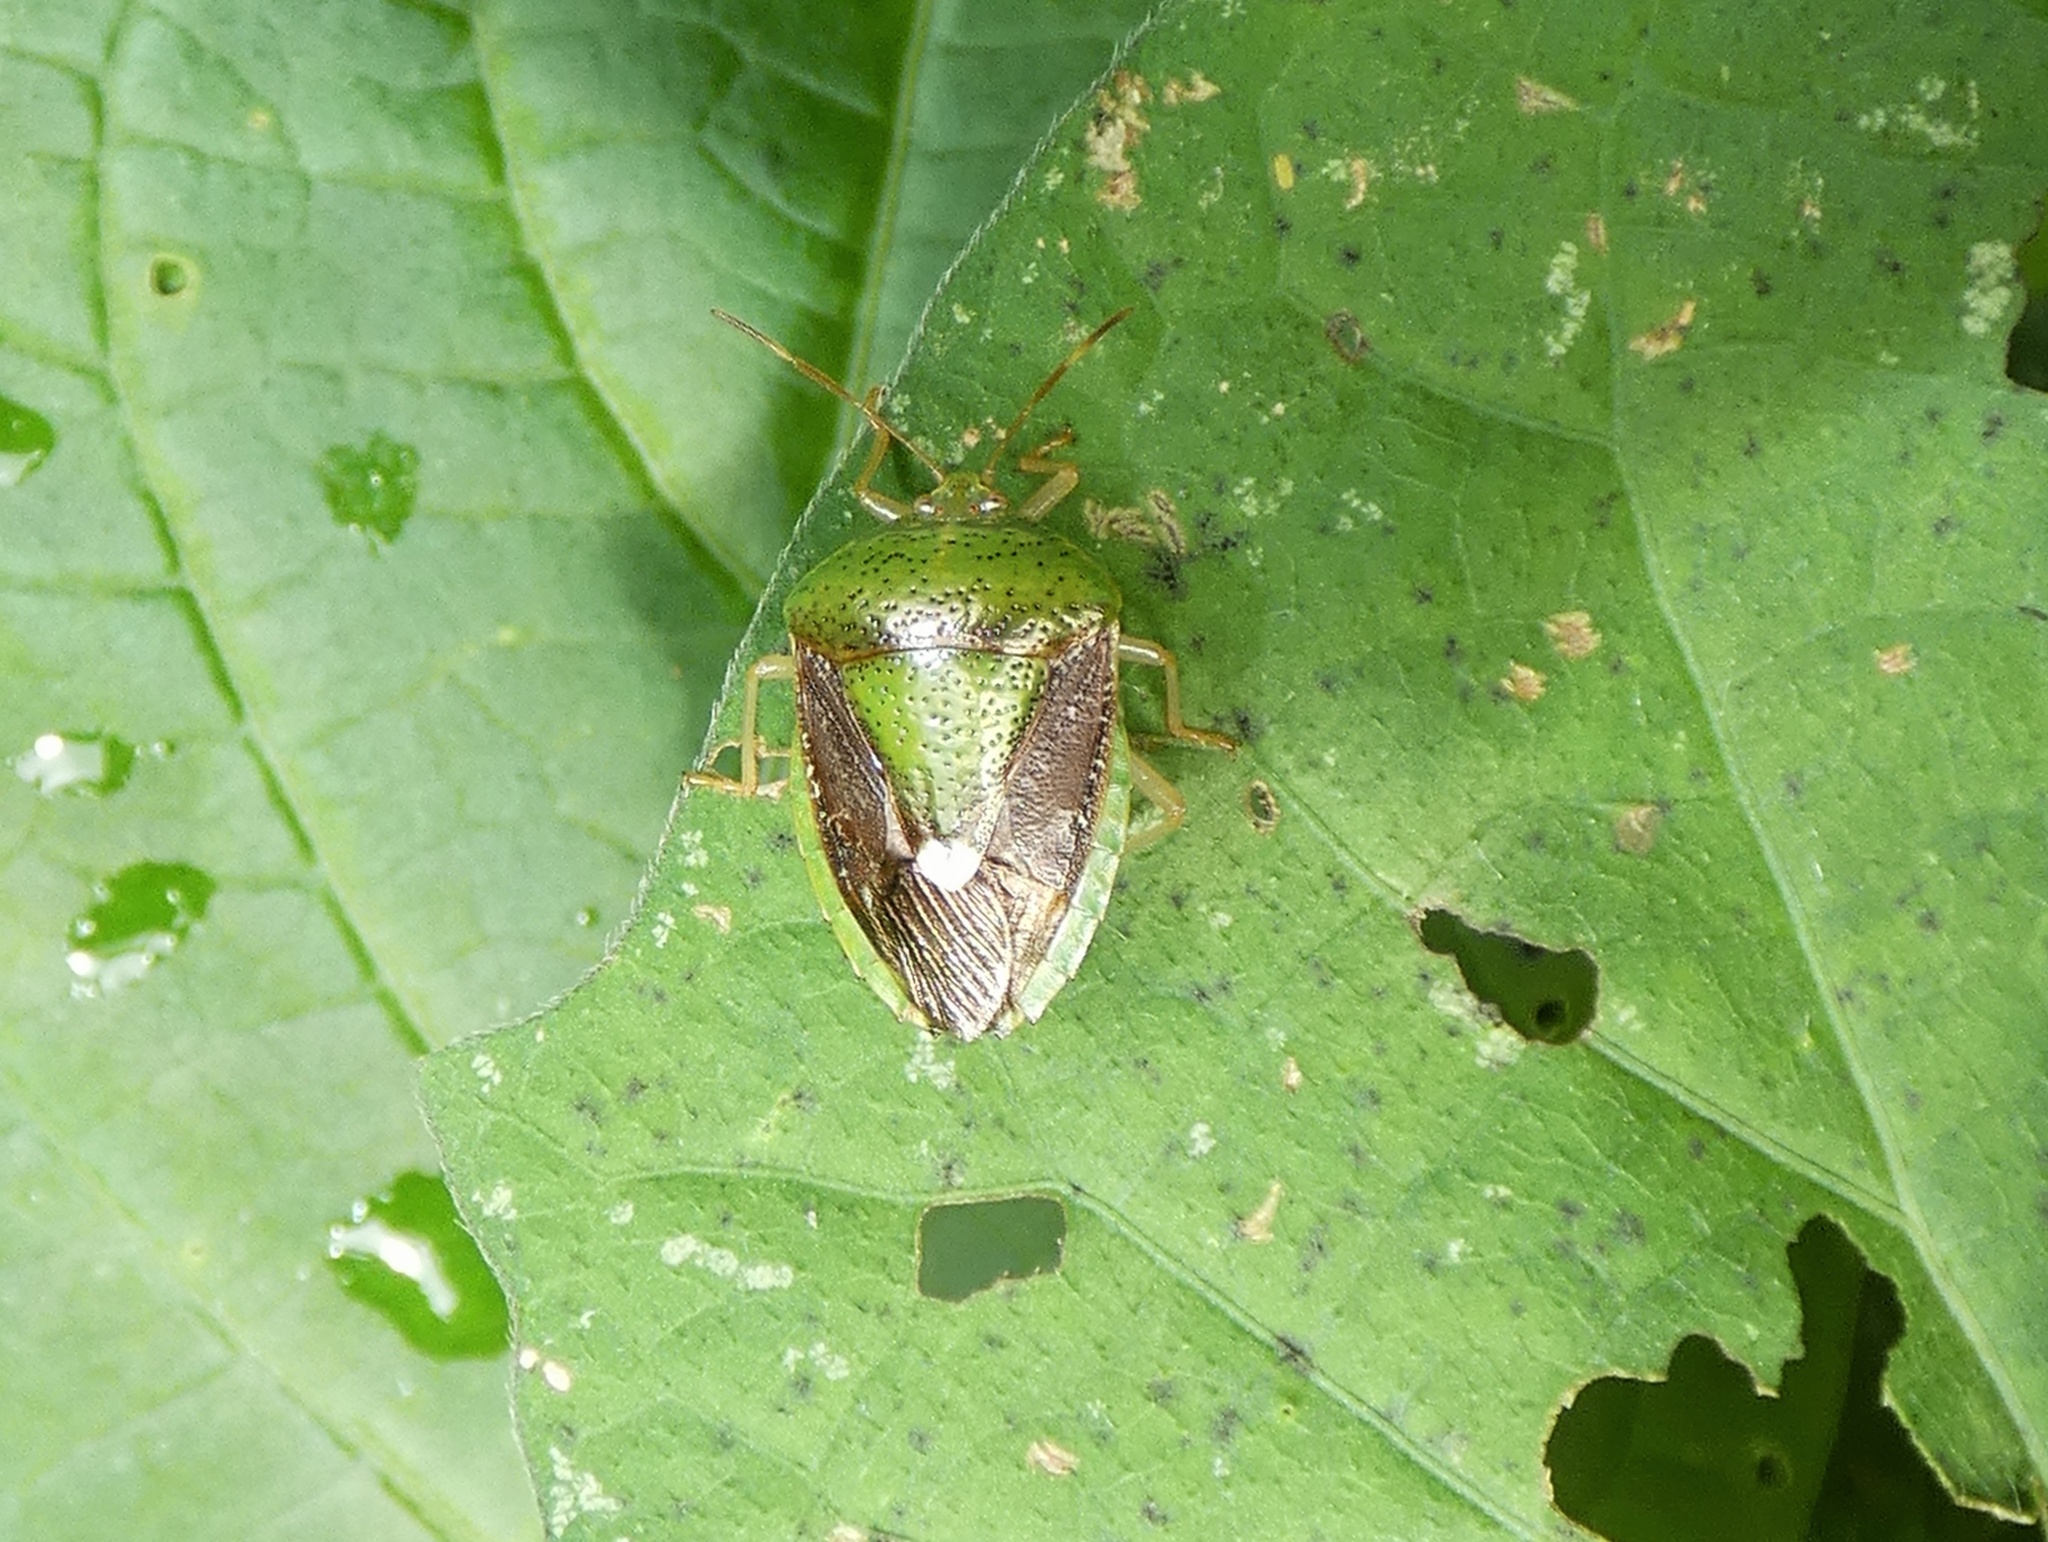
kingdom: Animalia
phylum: Arthropoda
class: Insecta
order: Hemiptera
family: Pentatomidae
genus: Edessa
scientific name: Edessa bifida
